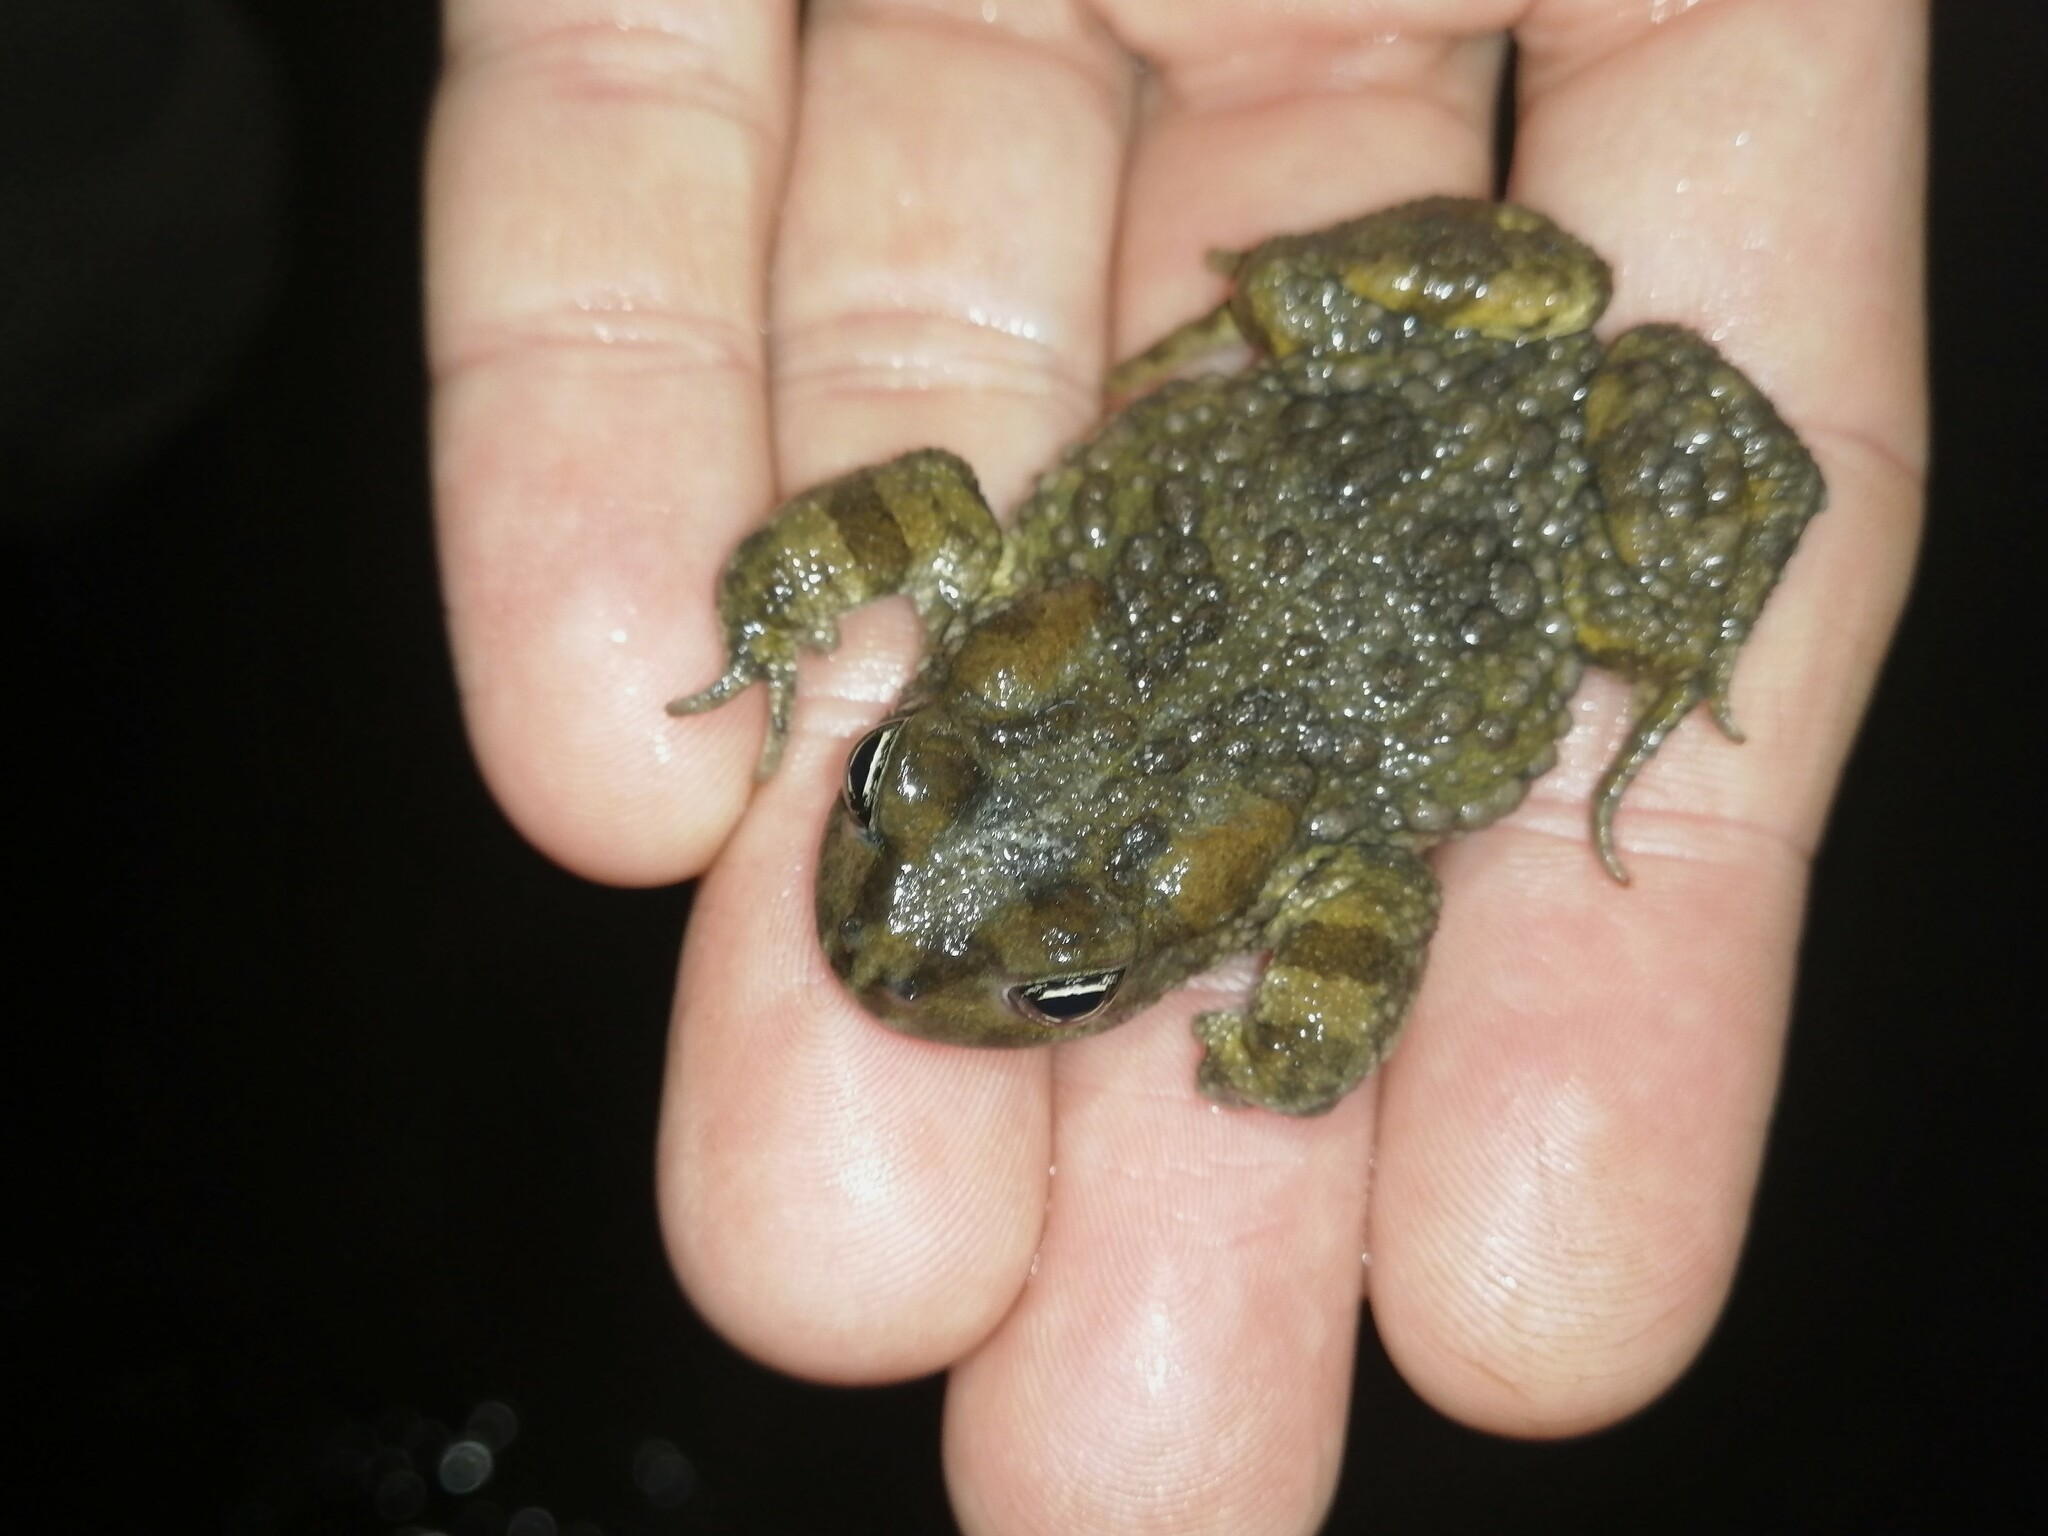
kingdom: Animalia
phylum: Chordata
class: Amphibia
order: Anura
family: Bufonidae
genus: Vandijkophrynus
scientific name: Vandijkophrynus angusticeps
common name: Sand toad
